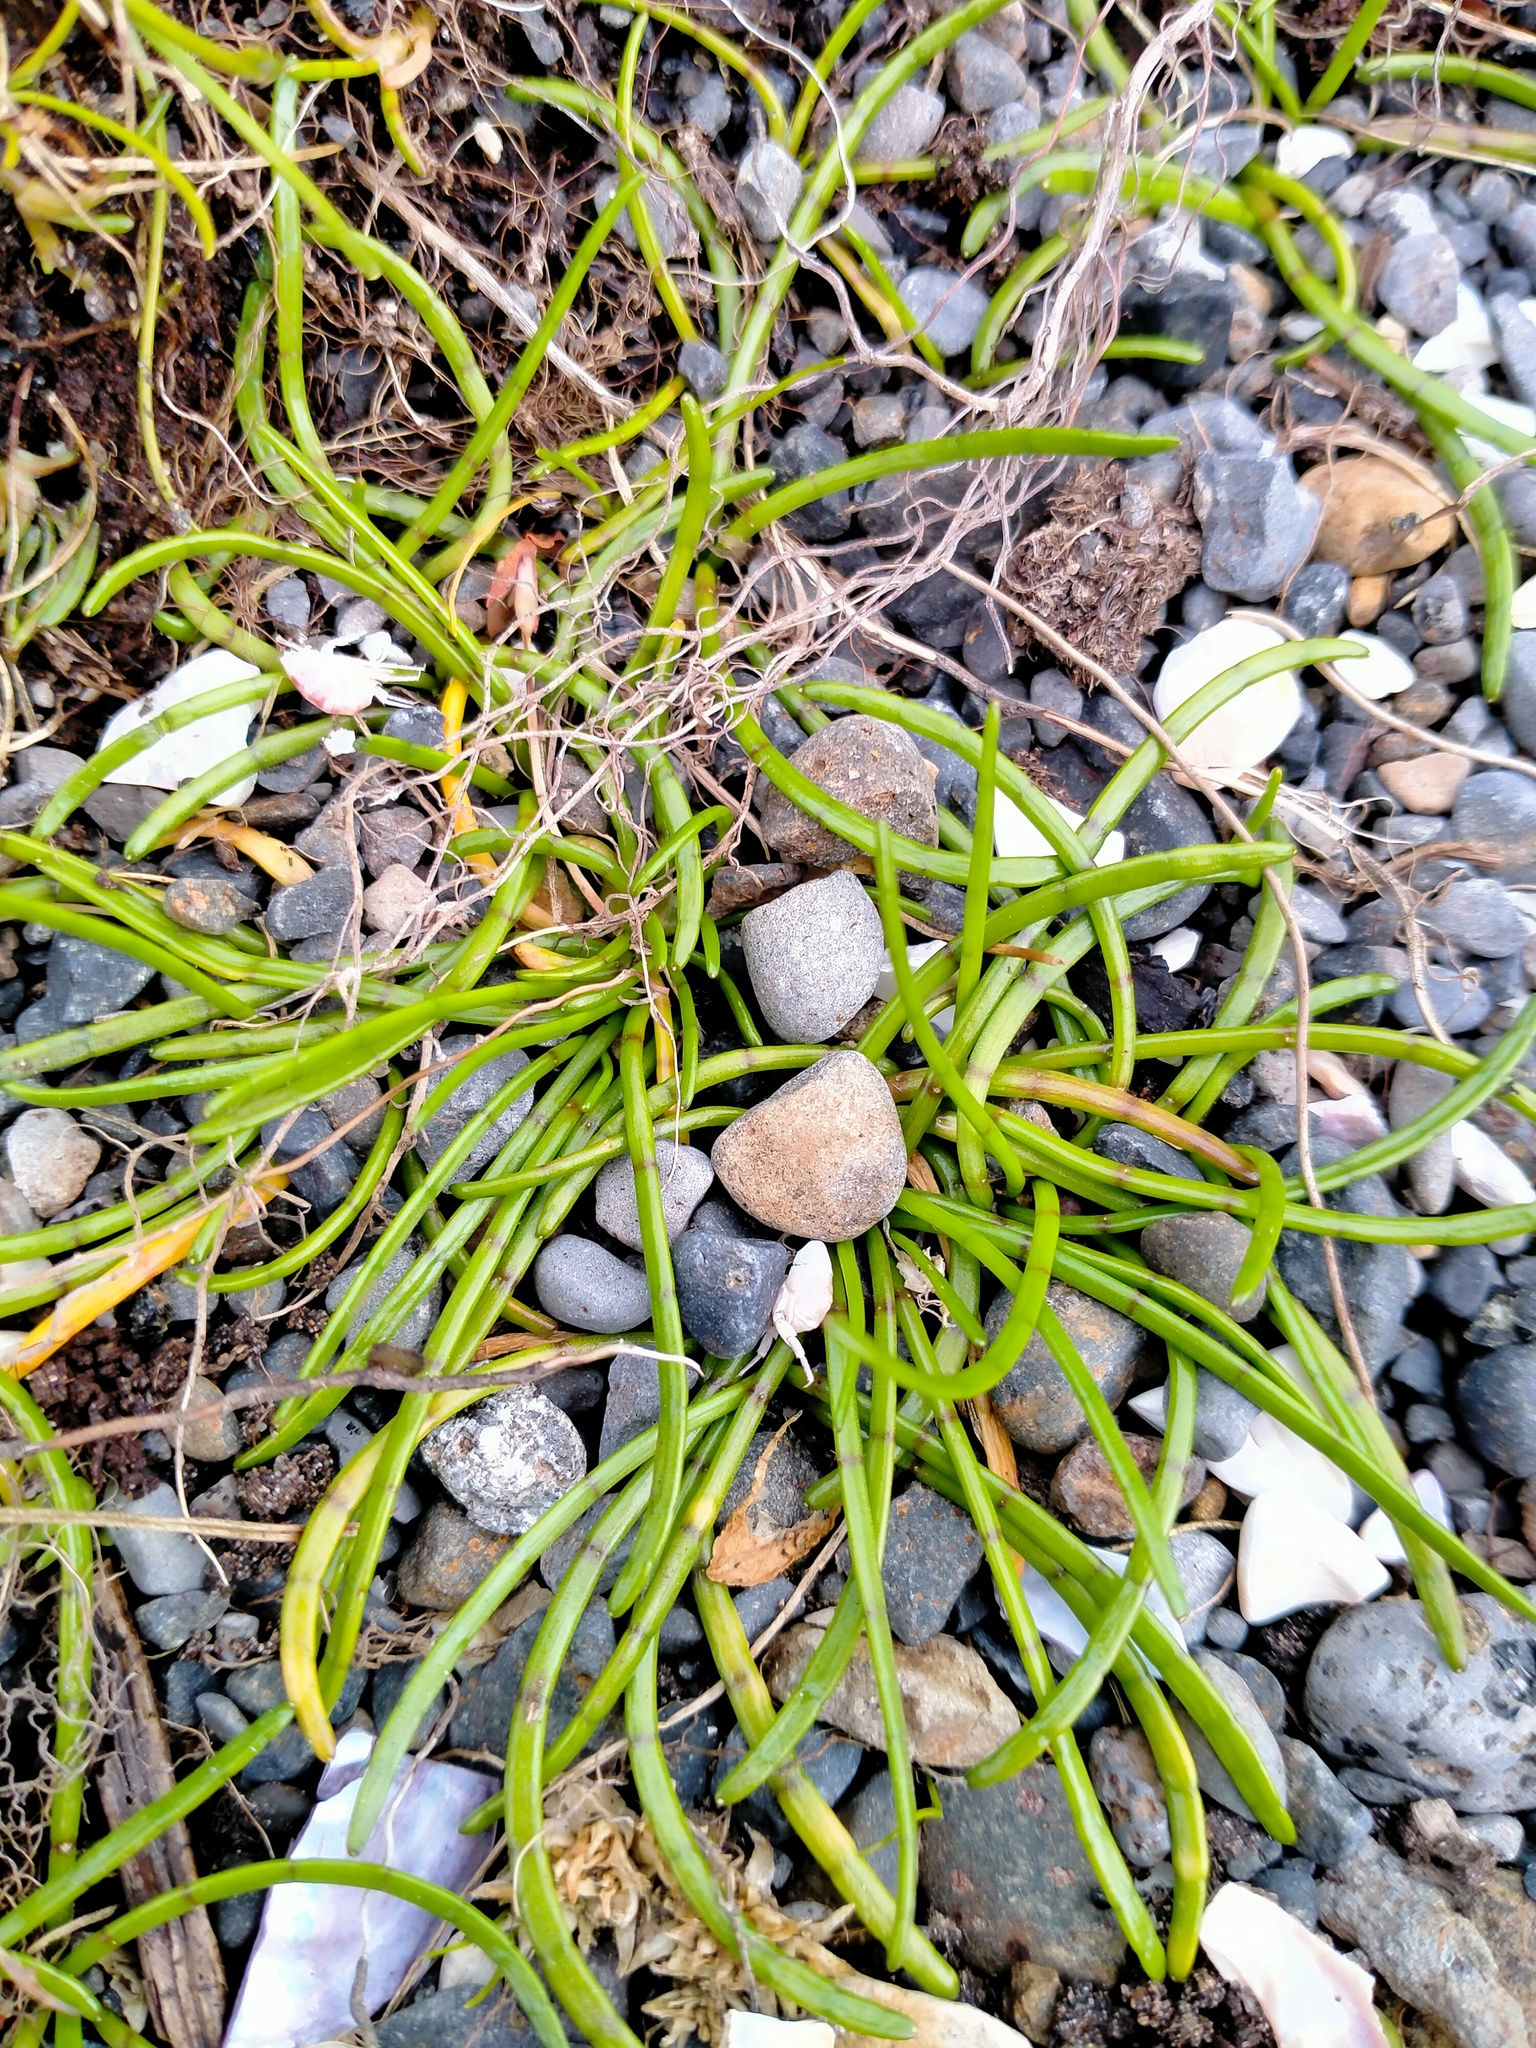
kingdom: Plantae
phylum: Tracheophyta
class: Magnoliopsida
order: Apiales
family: Apiaceae
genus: Lilaeopsis
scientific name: Lilaeopsis novae-zelandiae
